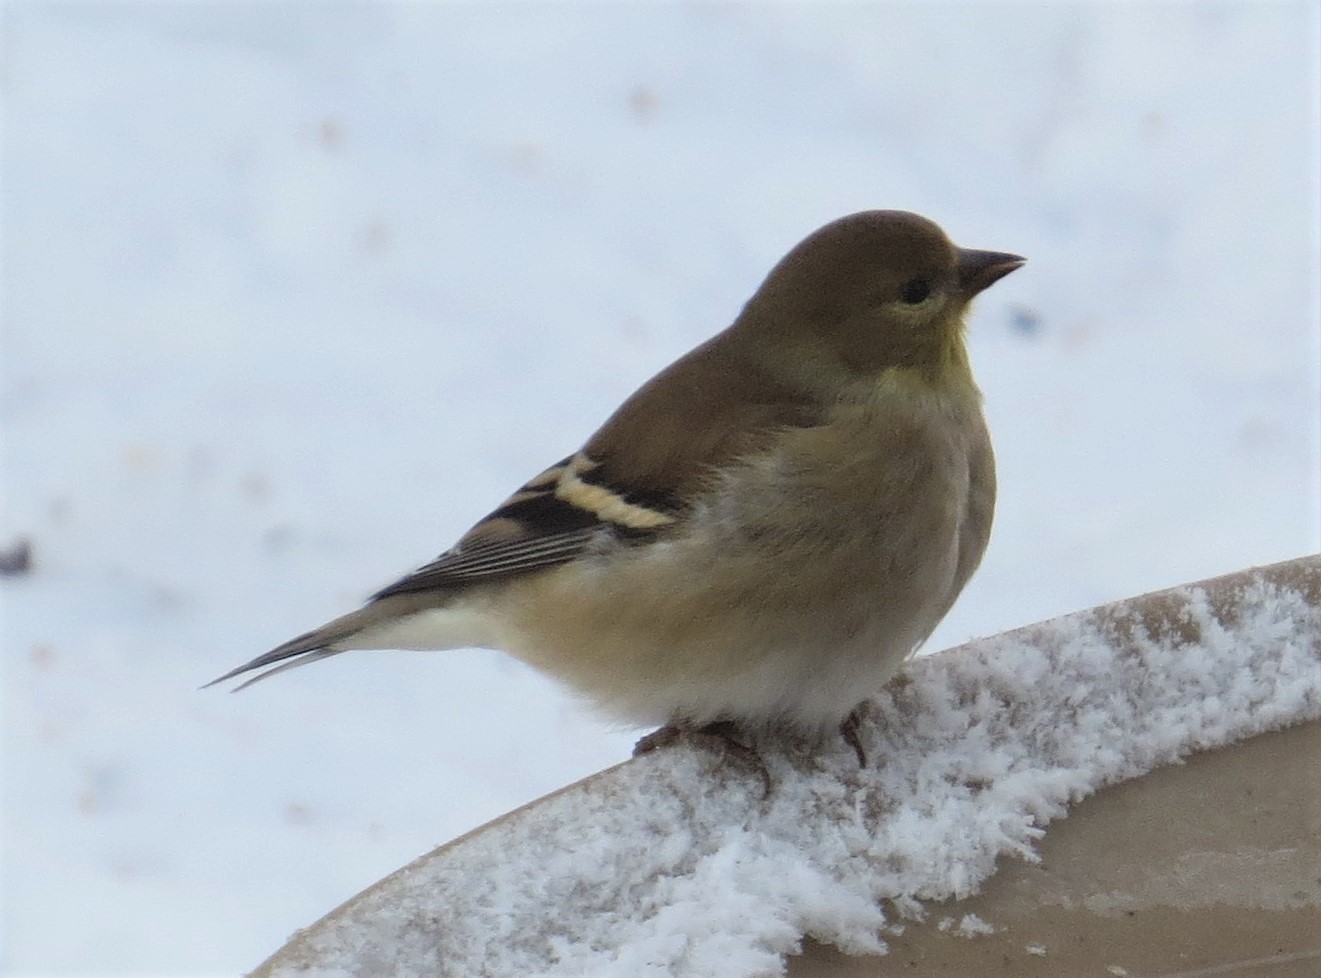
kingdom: Animalia
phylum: Chordata
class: Aves
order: Passeriformes
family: Fringillidae
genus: Spinus
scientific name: Spinus tristis
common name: American goldfinch
